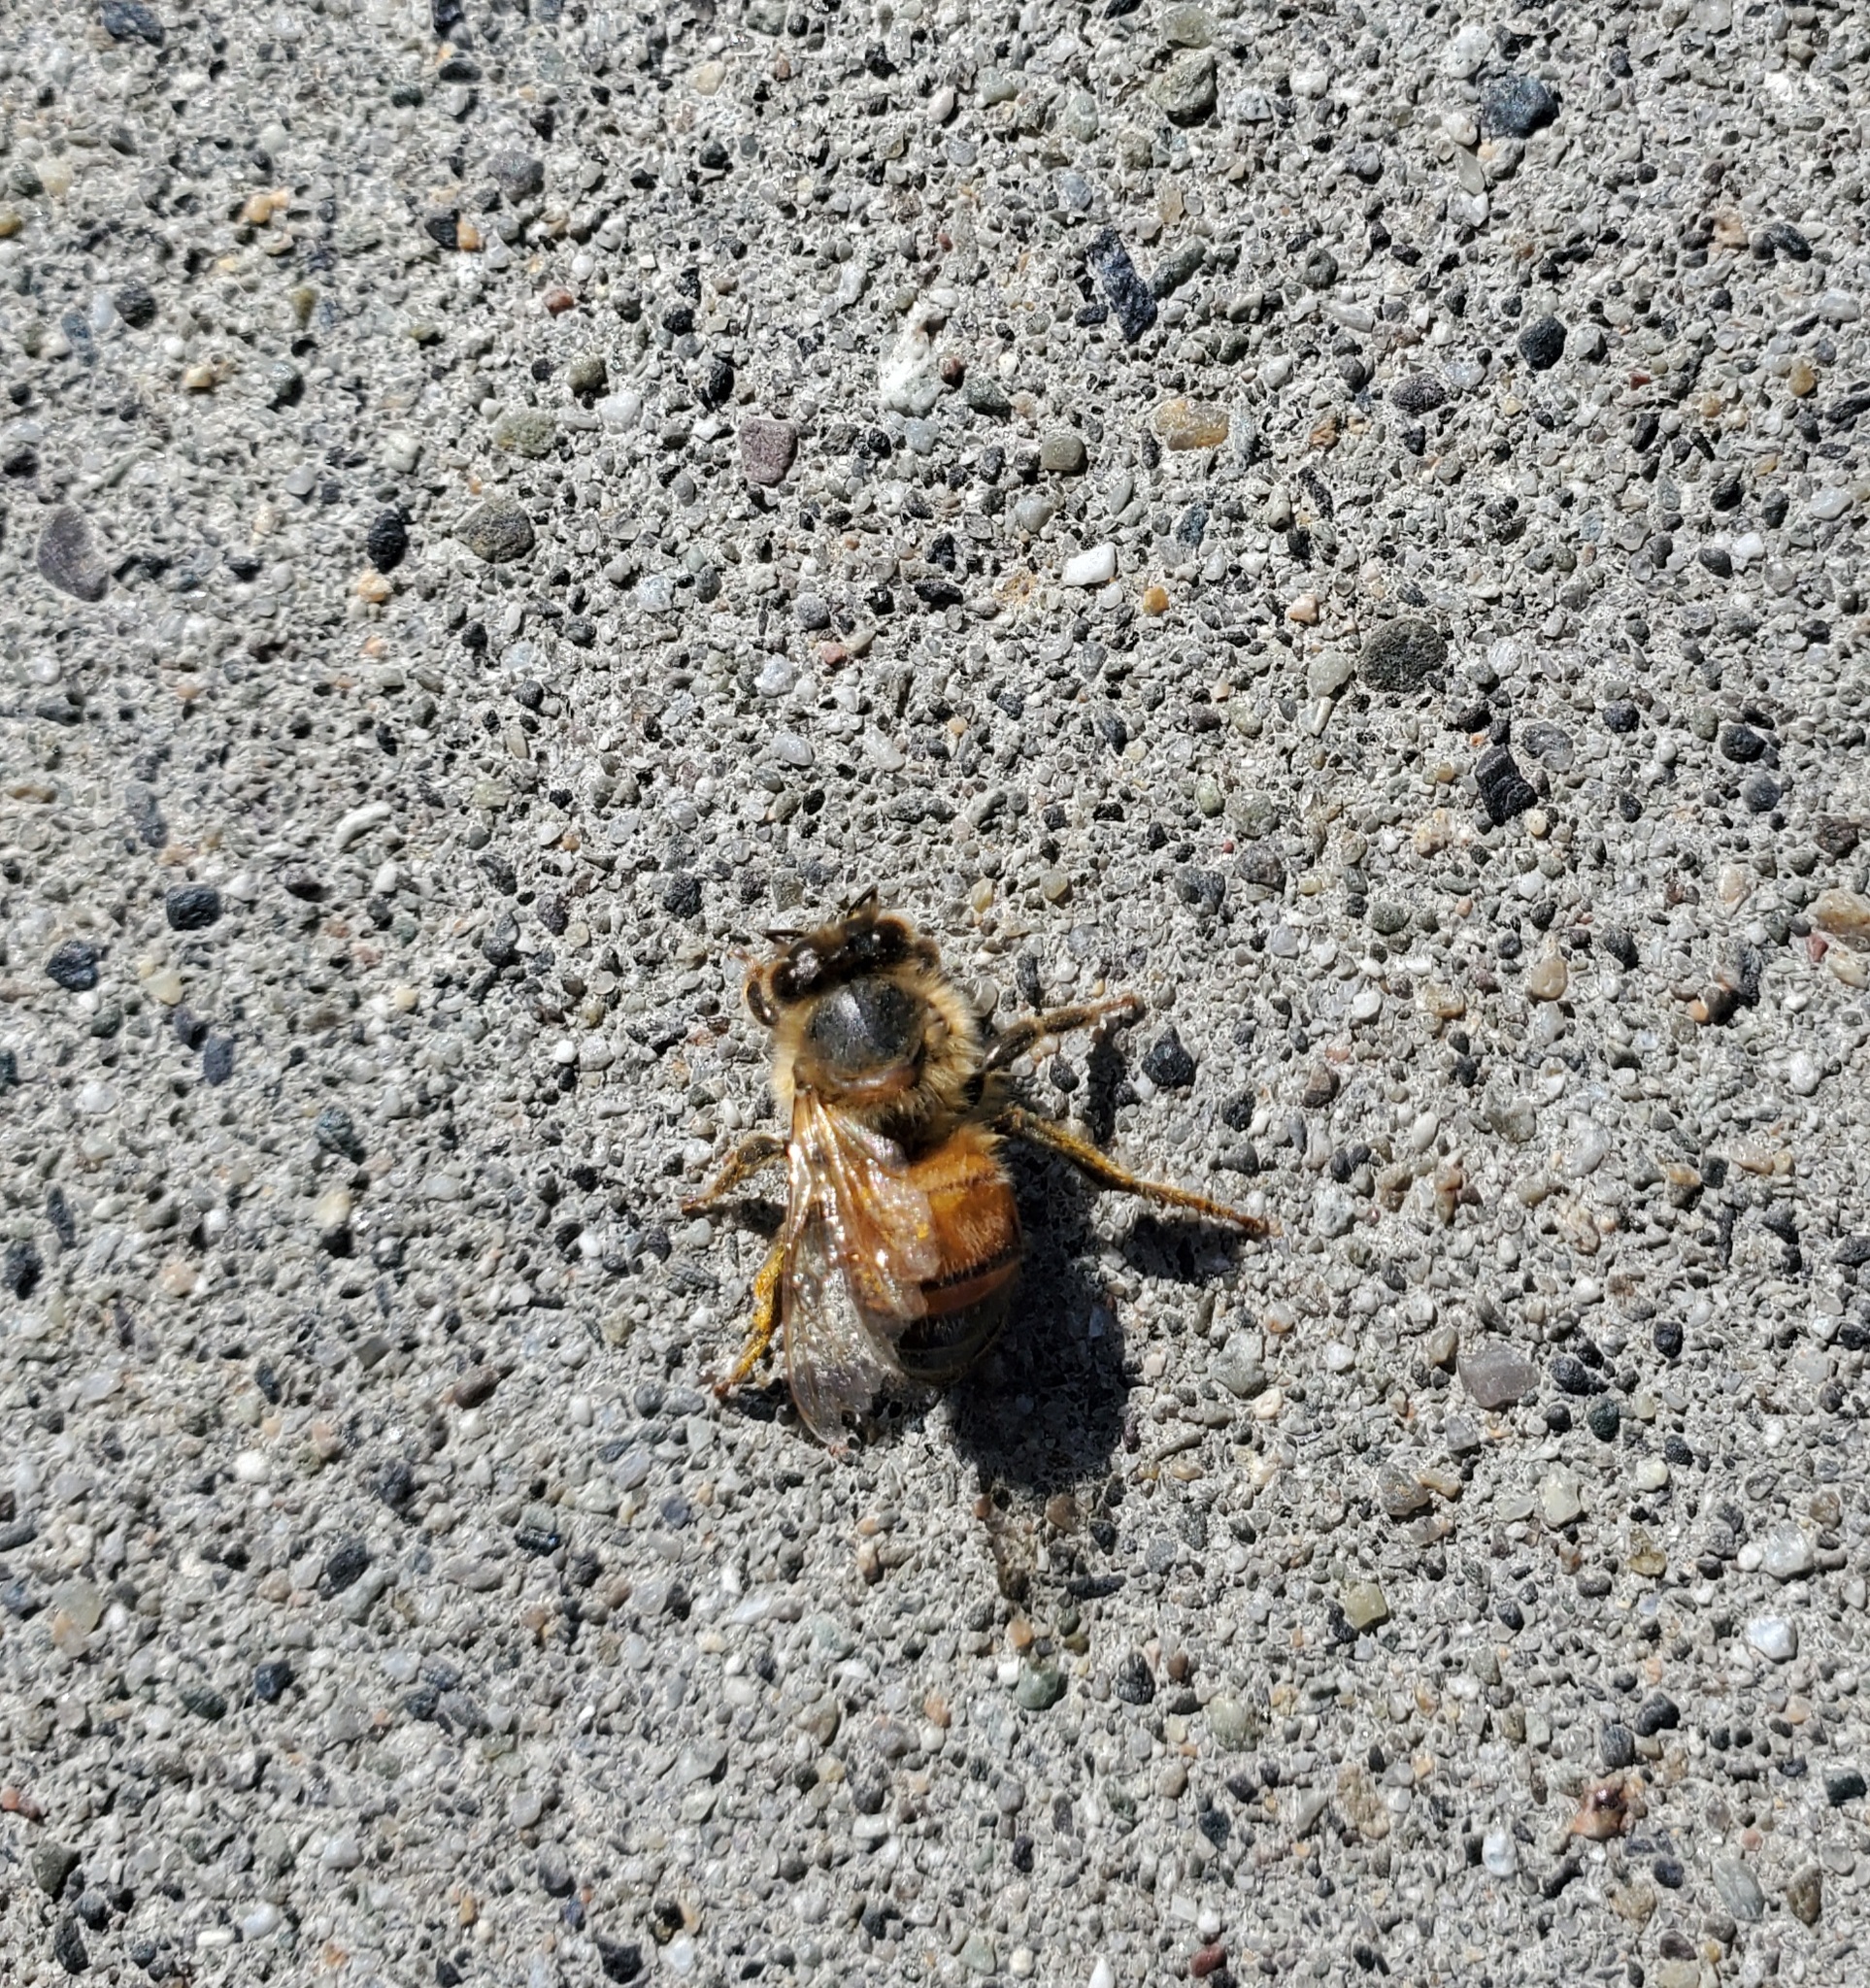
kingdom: Animalia
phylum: Arthropoda
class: Insecta
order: Hymenoptera
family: Apidae
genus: Apis
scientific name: Apis mellifera
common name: Honey bee
